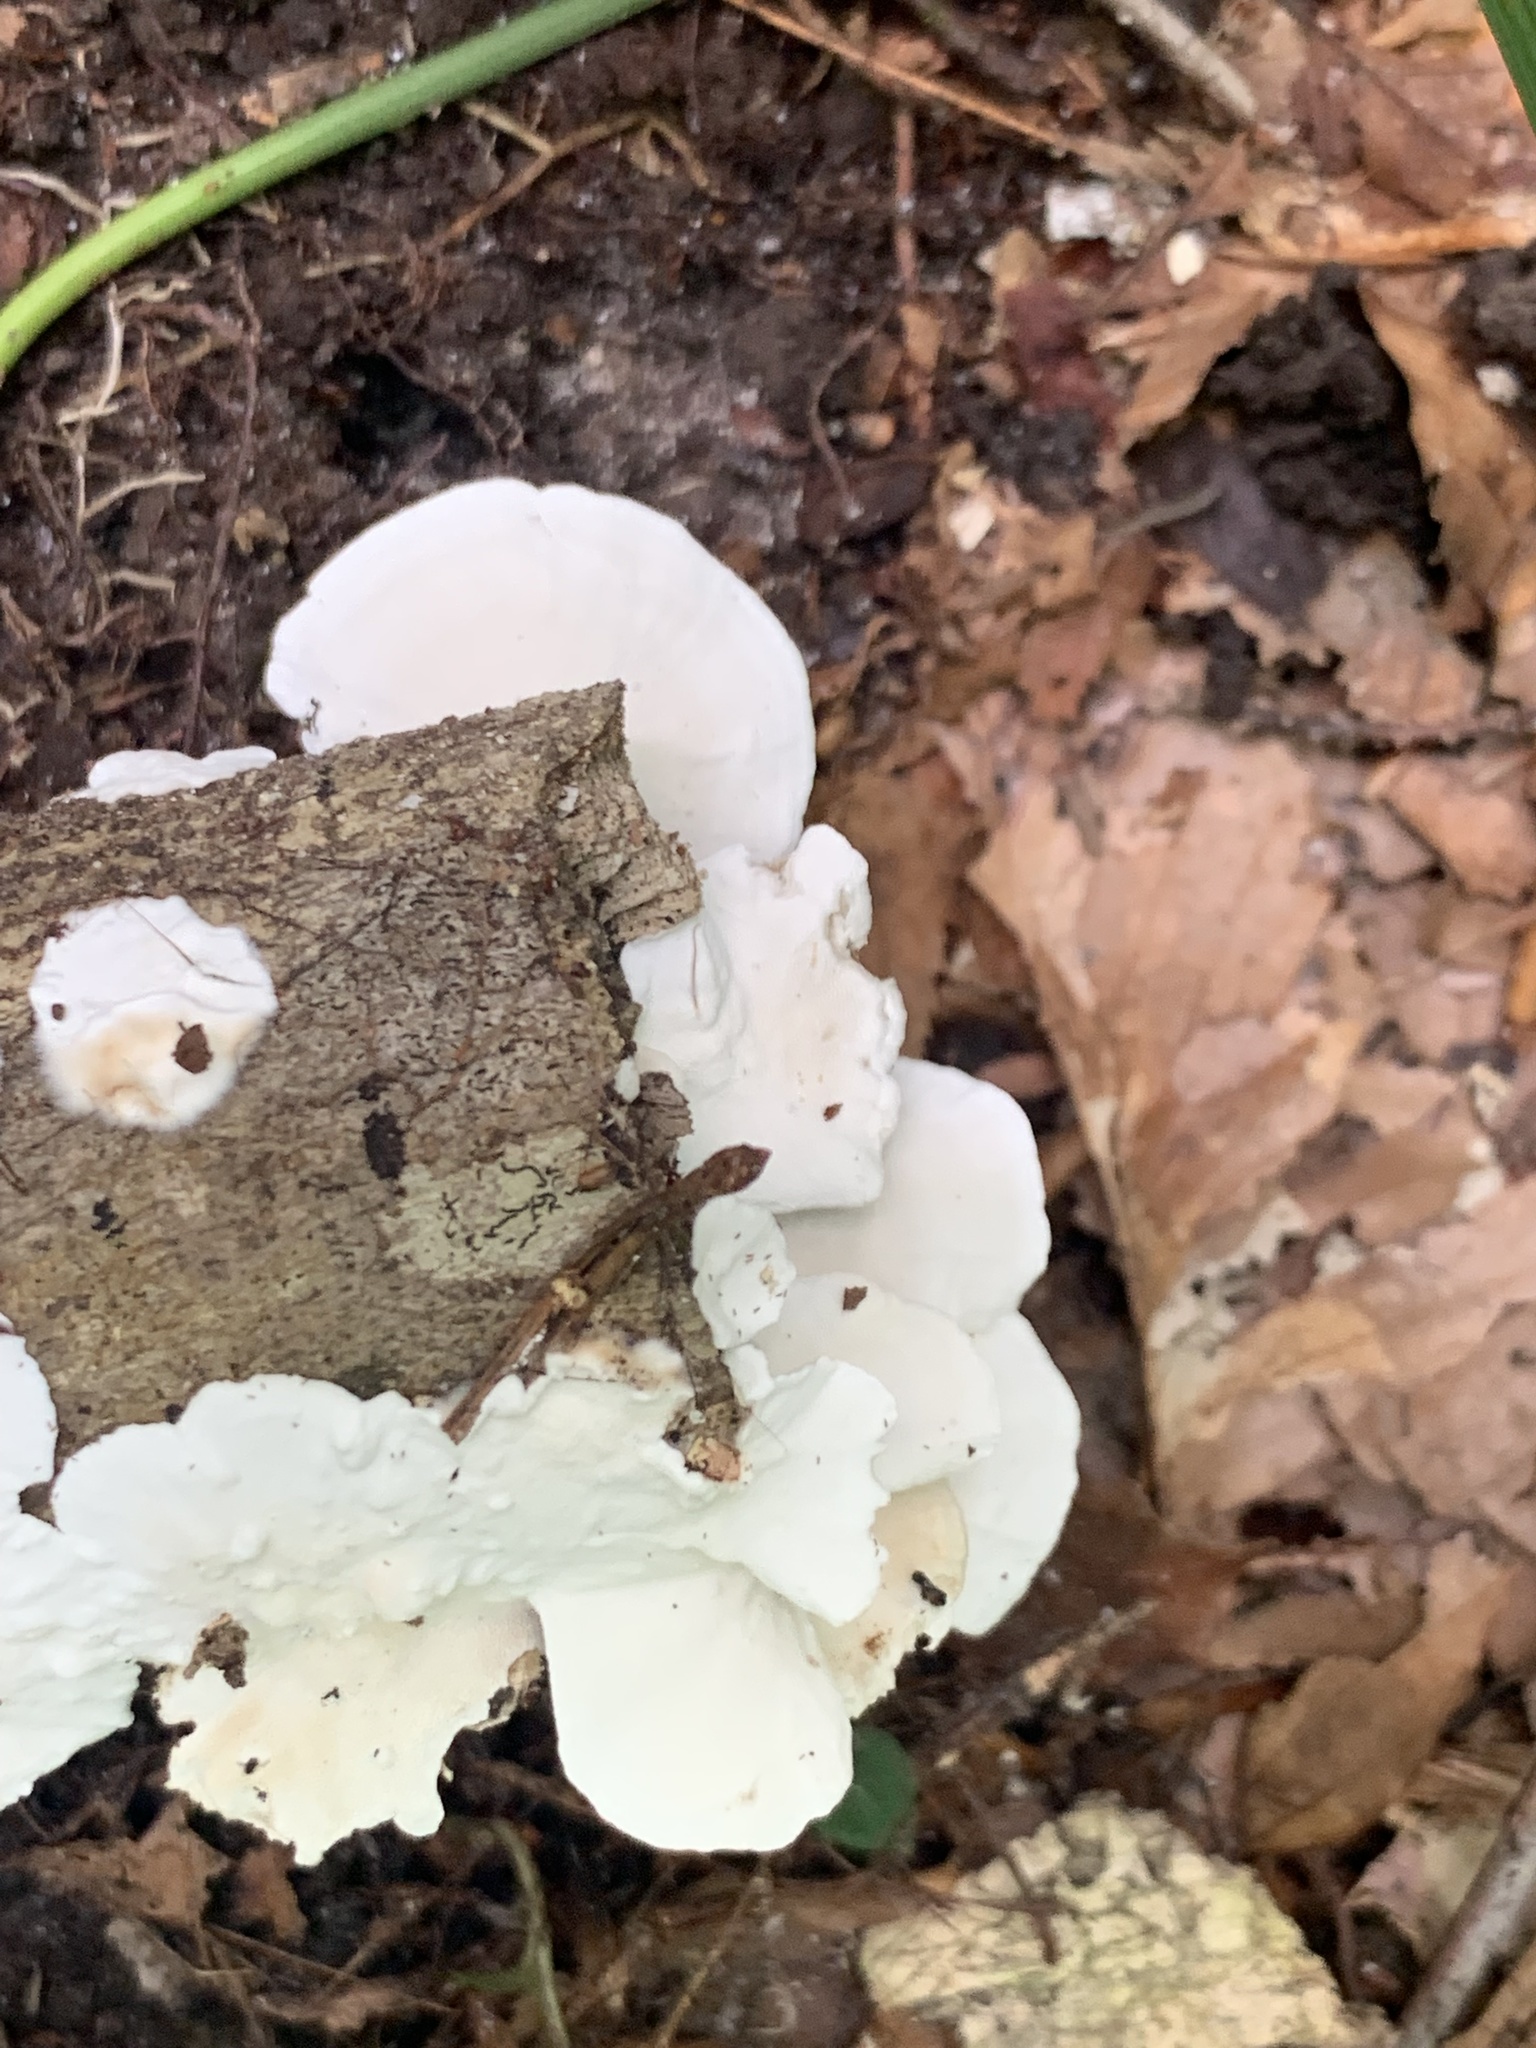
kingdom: Fungi
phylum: Basidiomycota
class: Agaricomycetes
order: Polyporales
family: Polyporaceae
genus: Trametes
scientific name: Trametes versicolor
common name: Turkeytail
